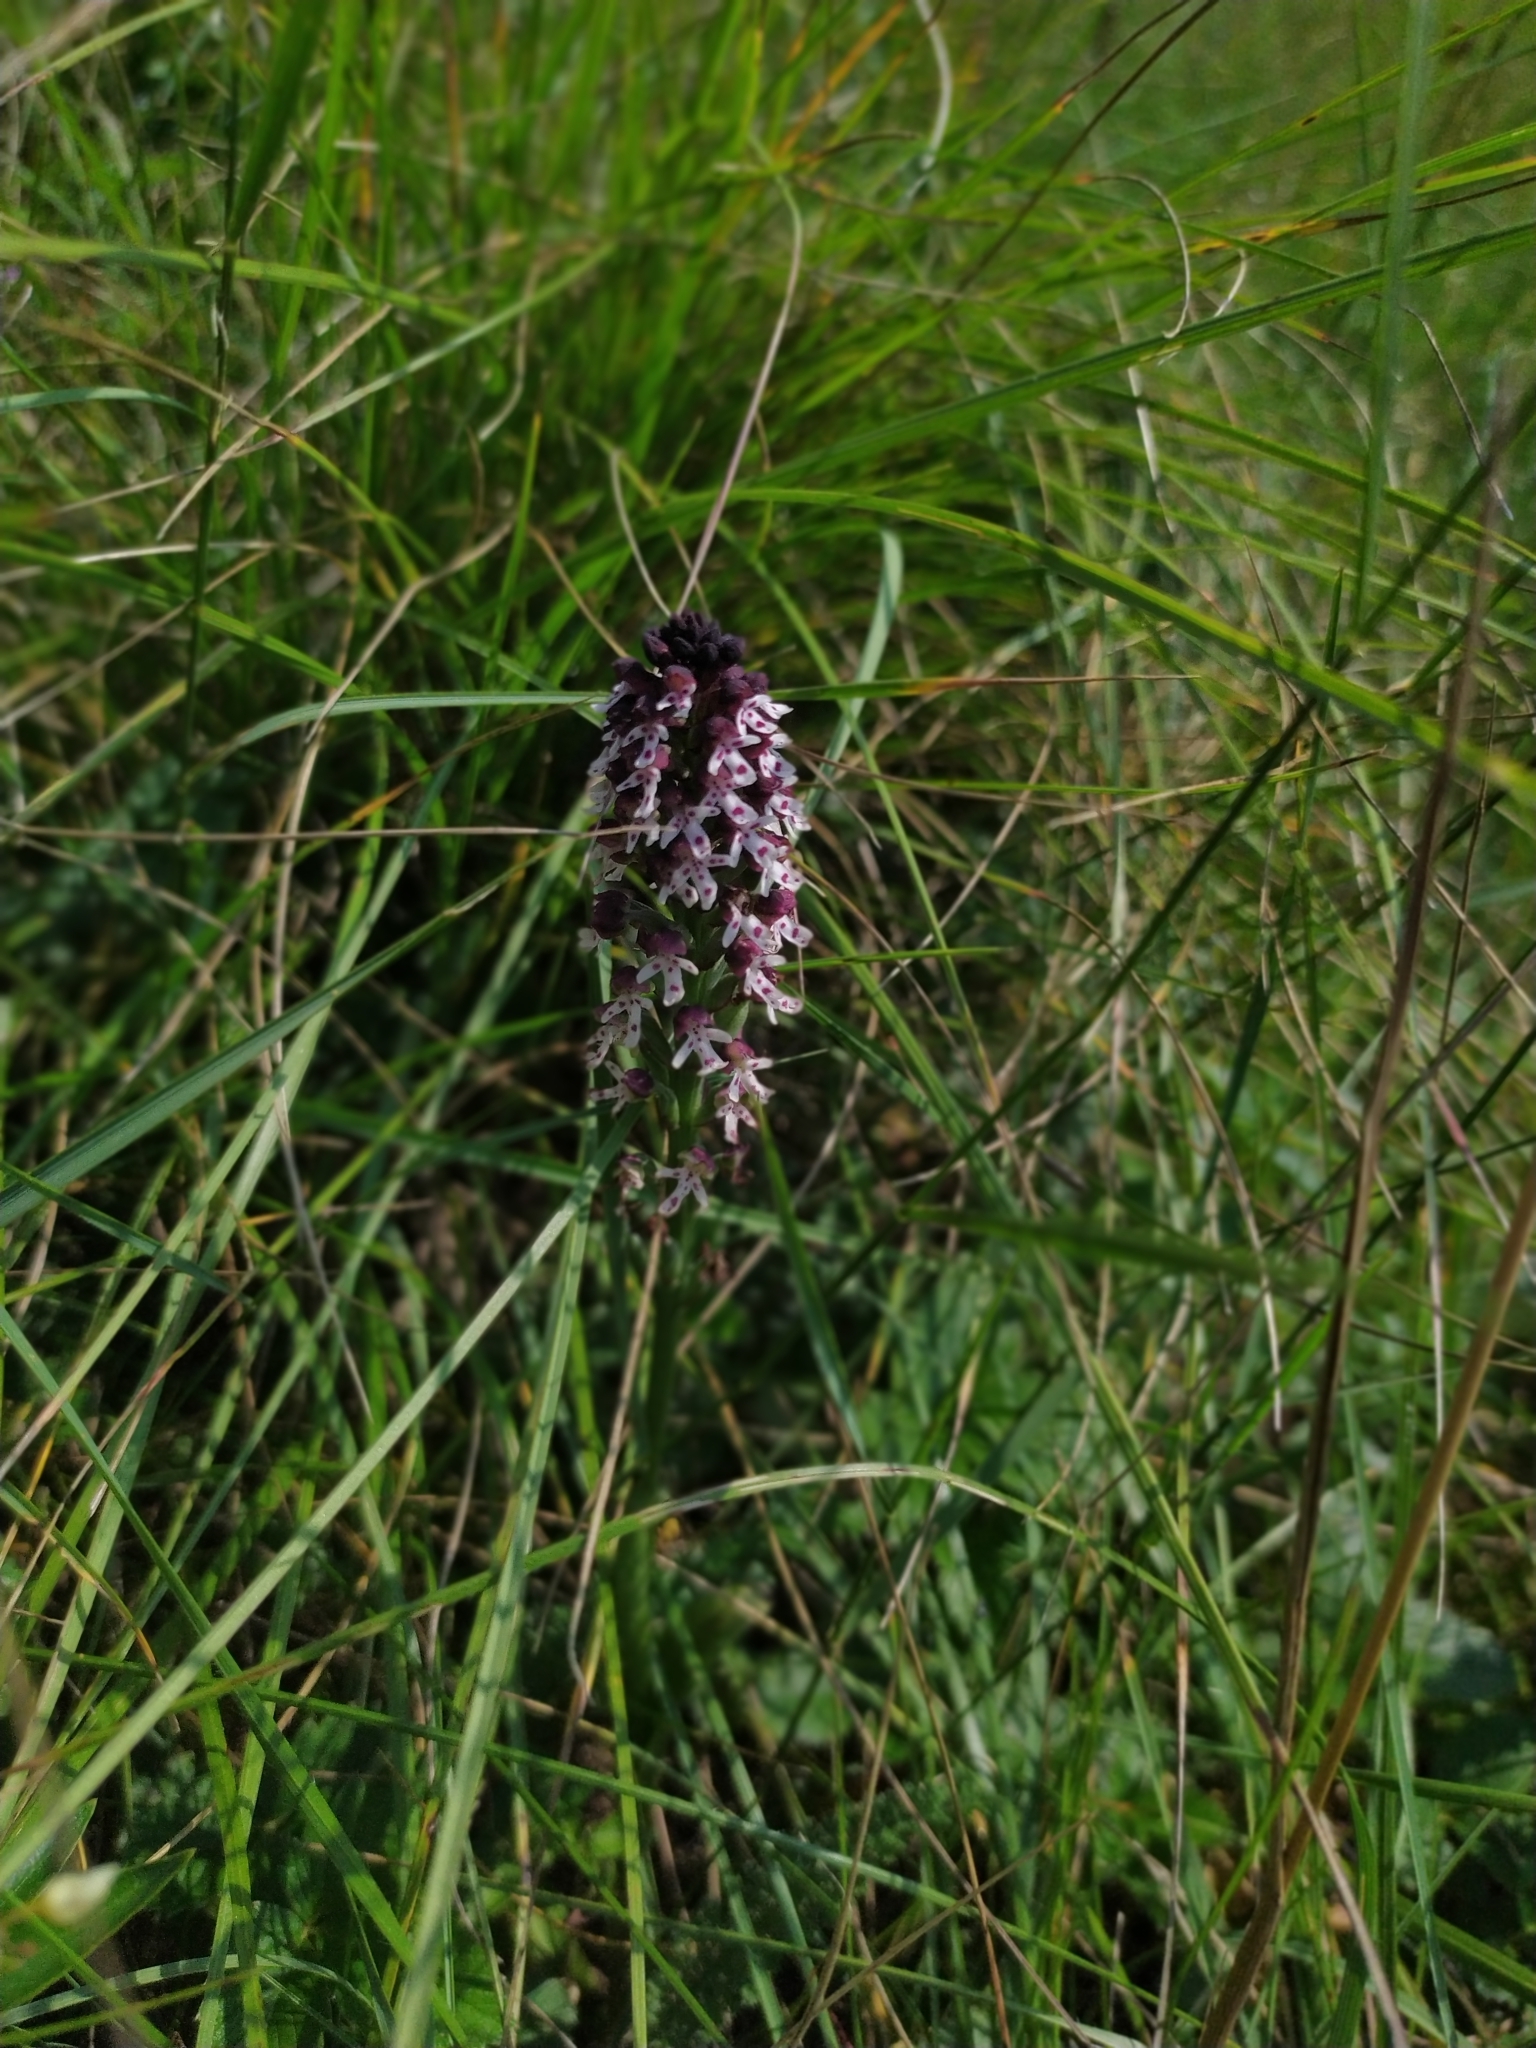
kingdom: Plantae
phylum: Tracheophyta
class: Liliopsida
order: Asparagales
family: Orchidaceae
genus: Neotinea
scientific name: Neotinea ustulata
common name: Burnt orchid
